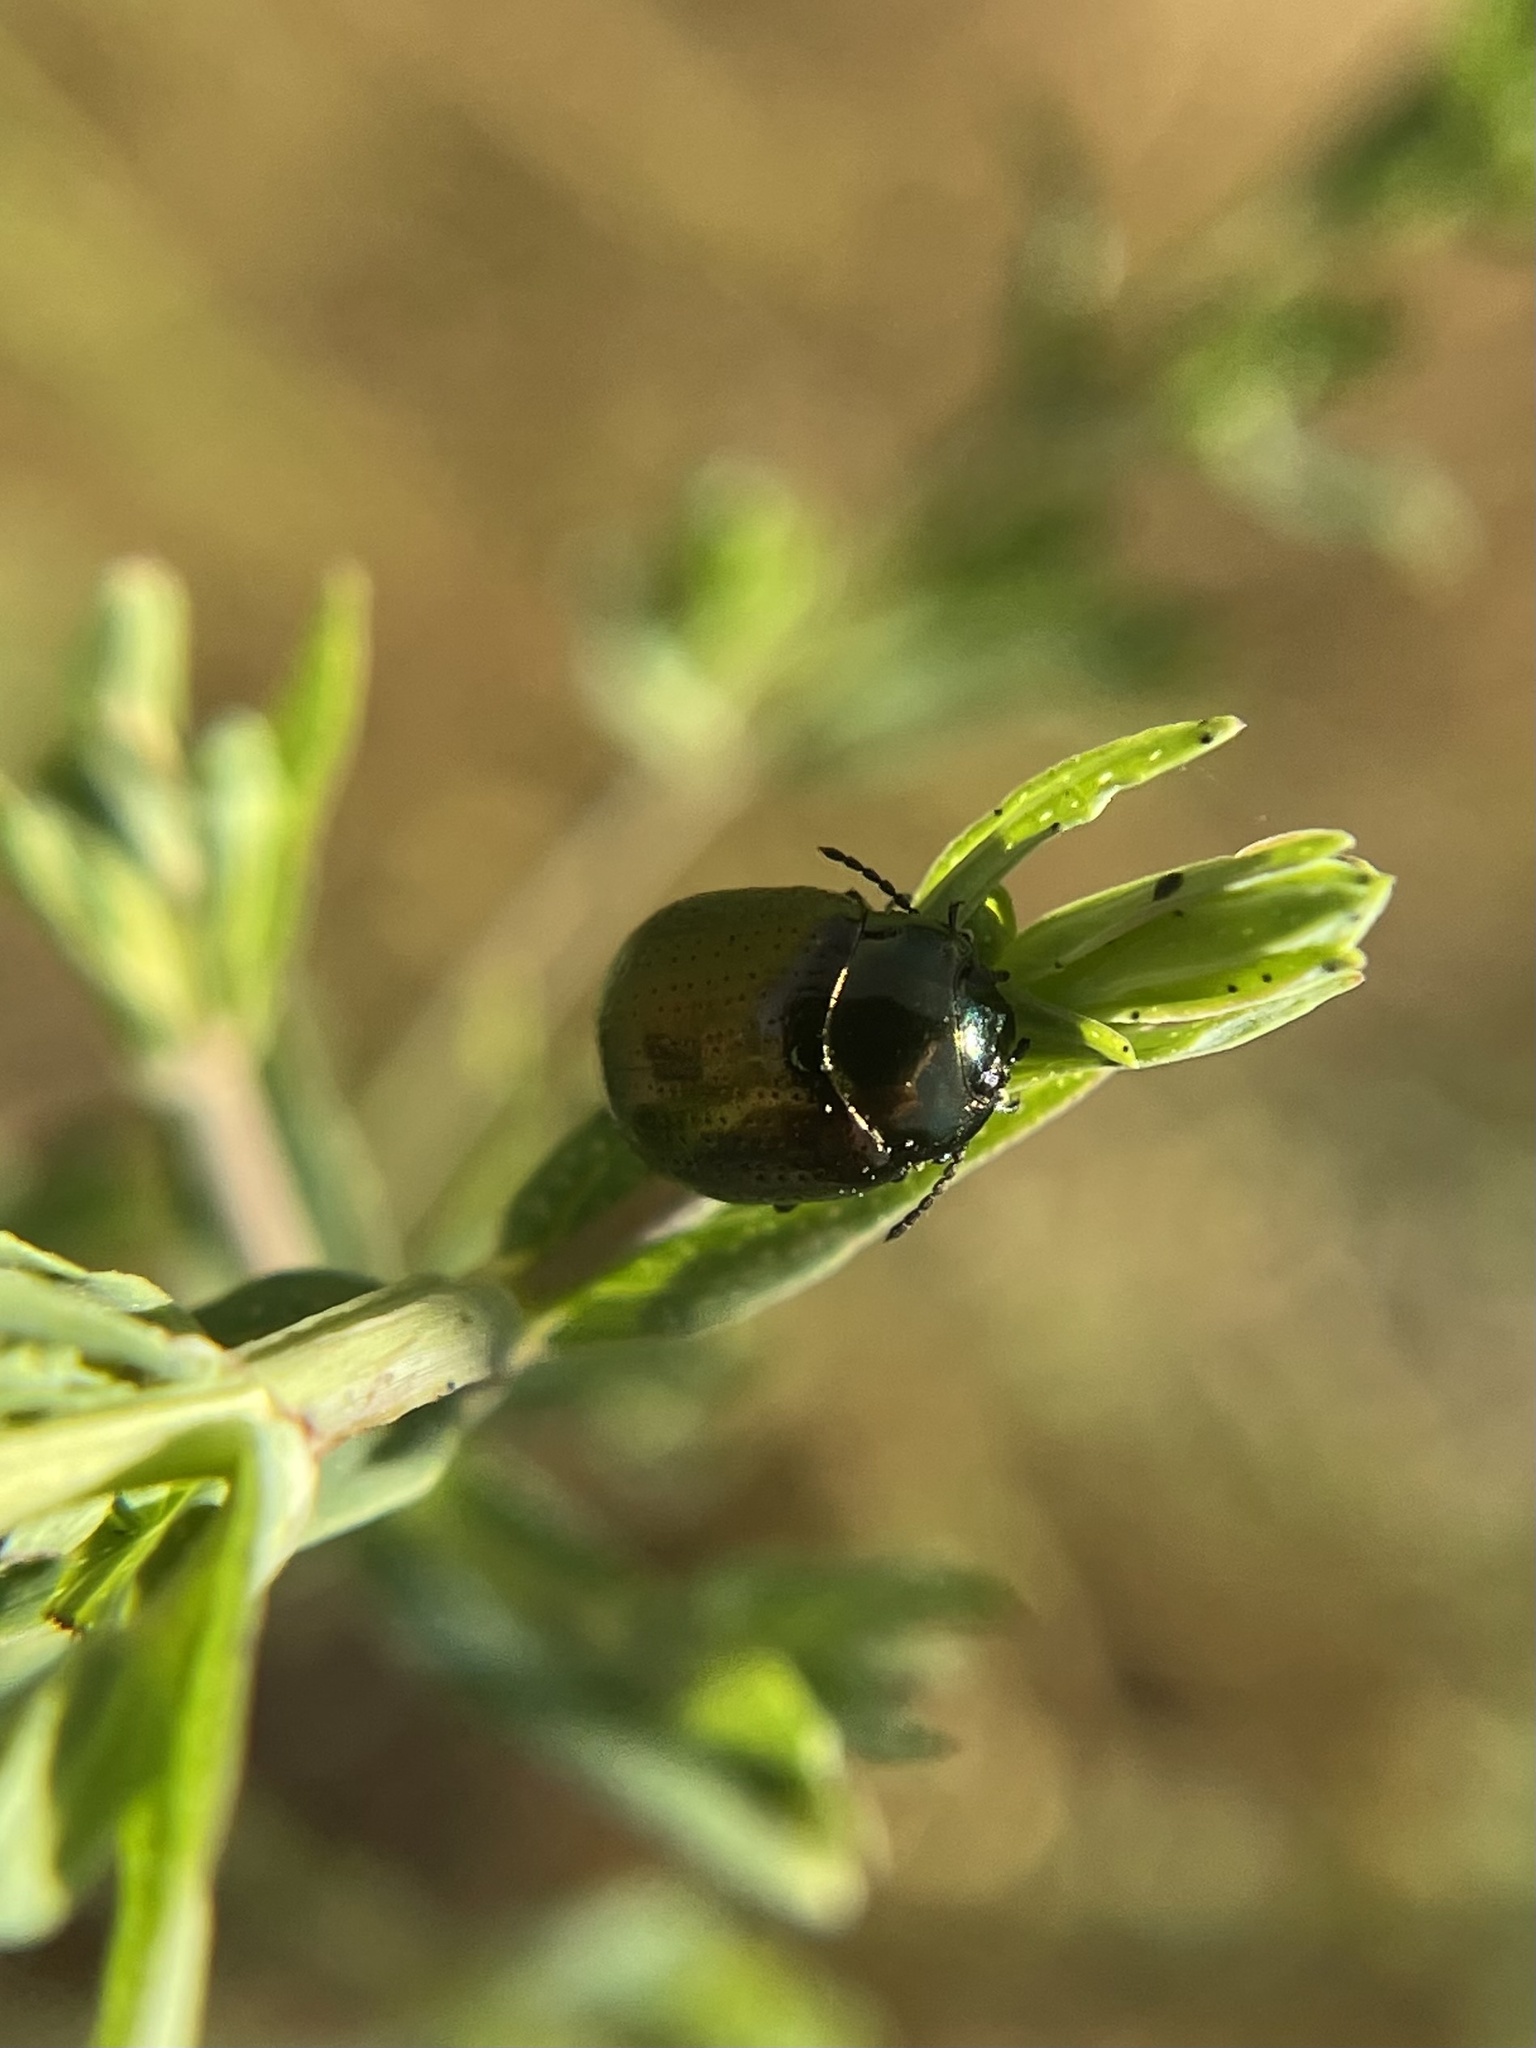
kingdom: Animalia
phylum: Arthropoda
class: Insecta
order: Coleoptera
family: Chrysomelidae
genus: Chrysolina
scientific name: Chrysolina hyperici
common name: St. johnswort beetle
